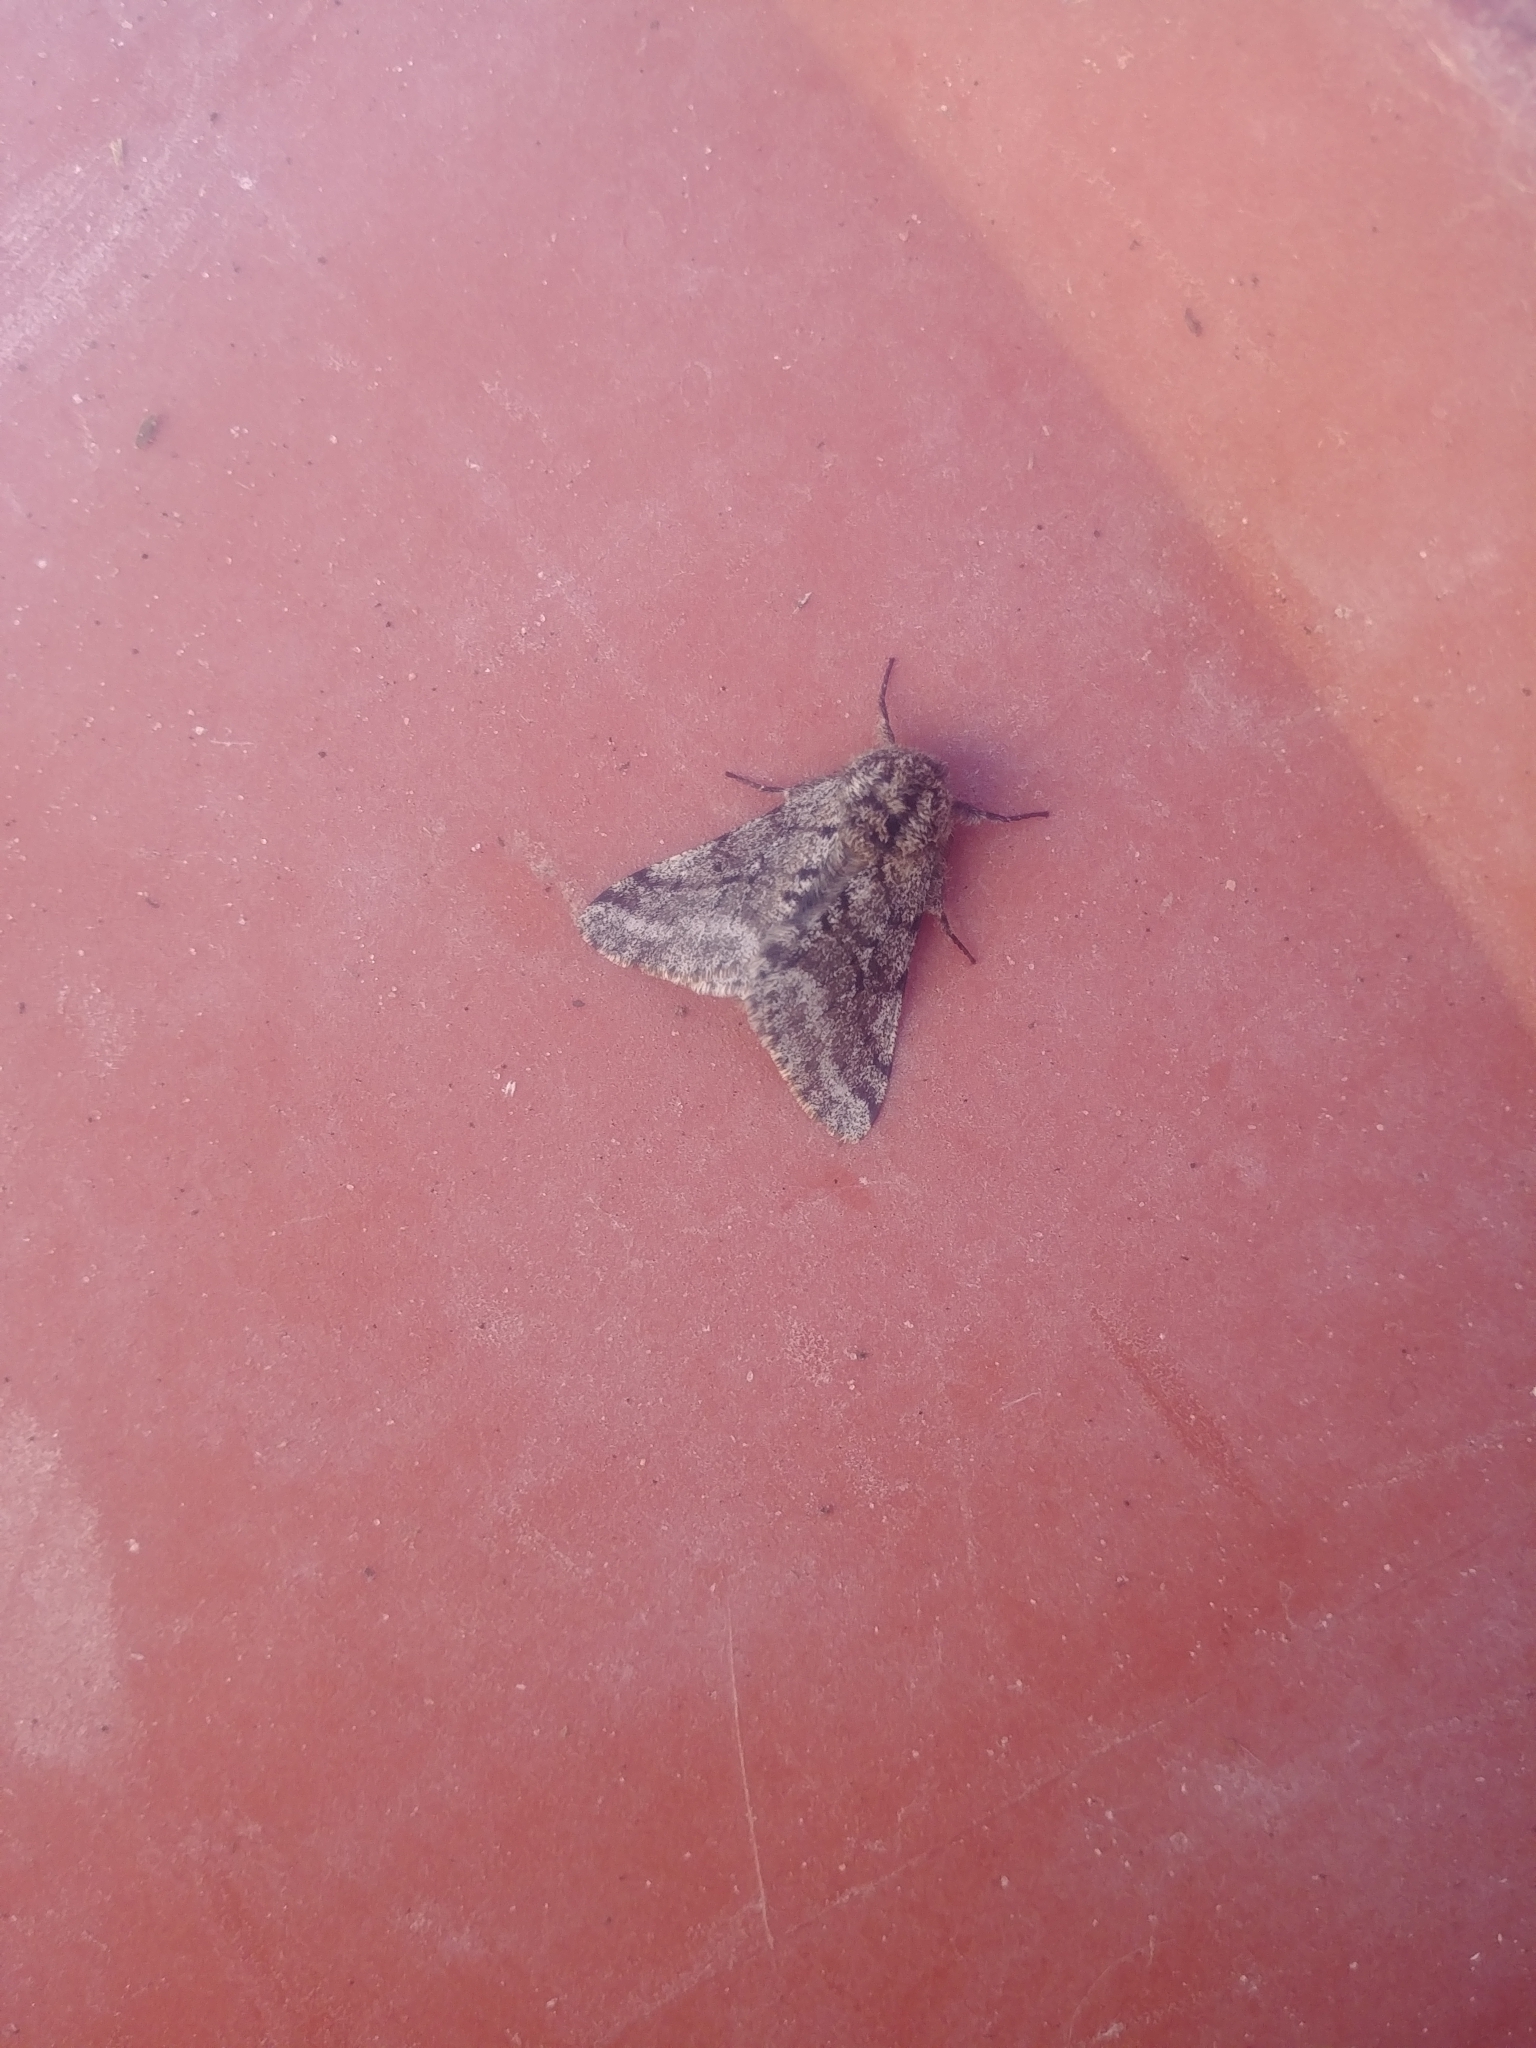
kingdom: Animalia
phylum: Arthropoda
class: Insecta
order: Lepidoptera
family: Geometridae
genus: Lycia
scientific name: Lycia ursaria
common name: Stout spanworm
